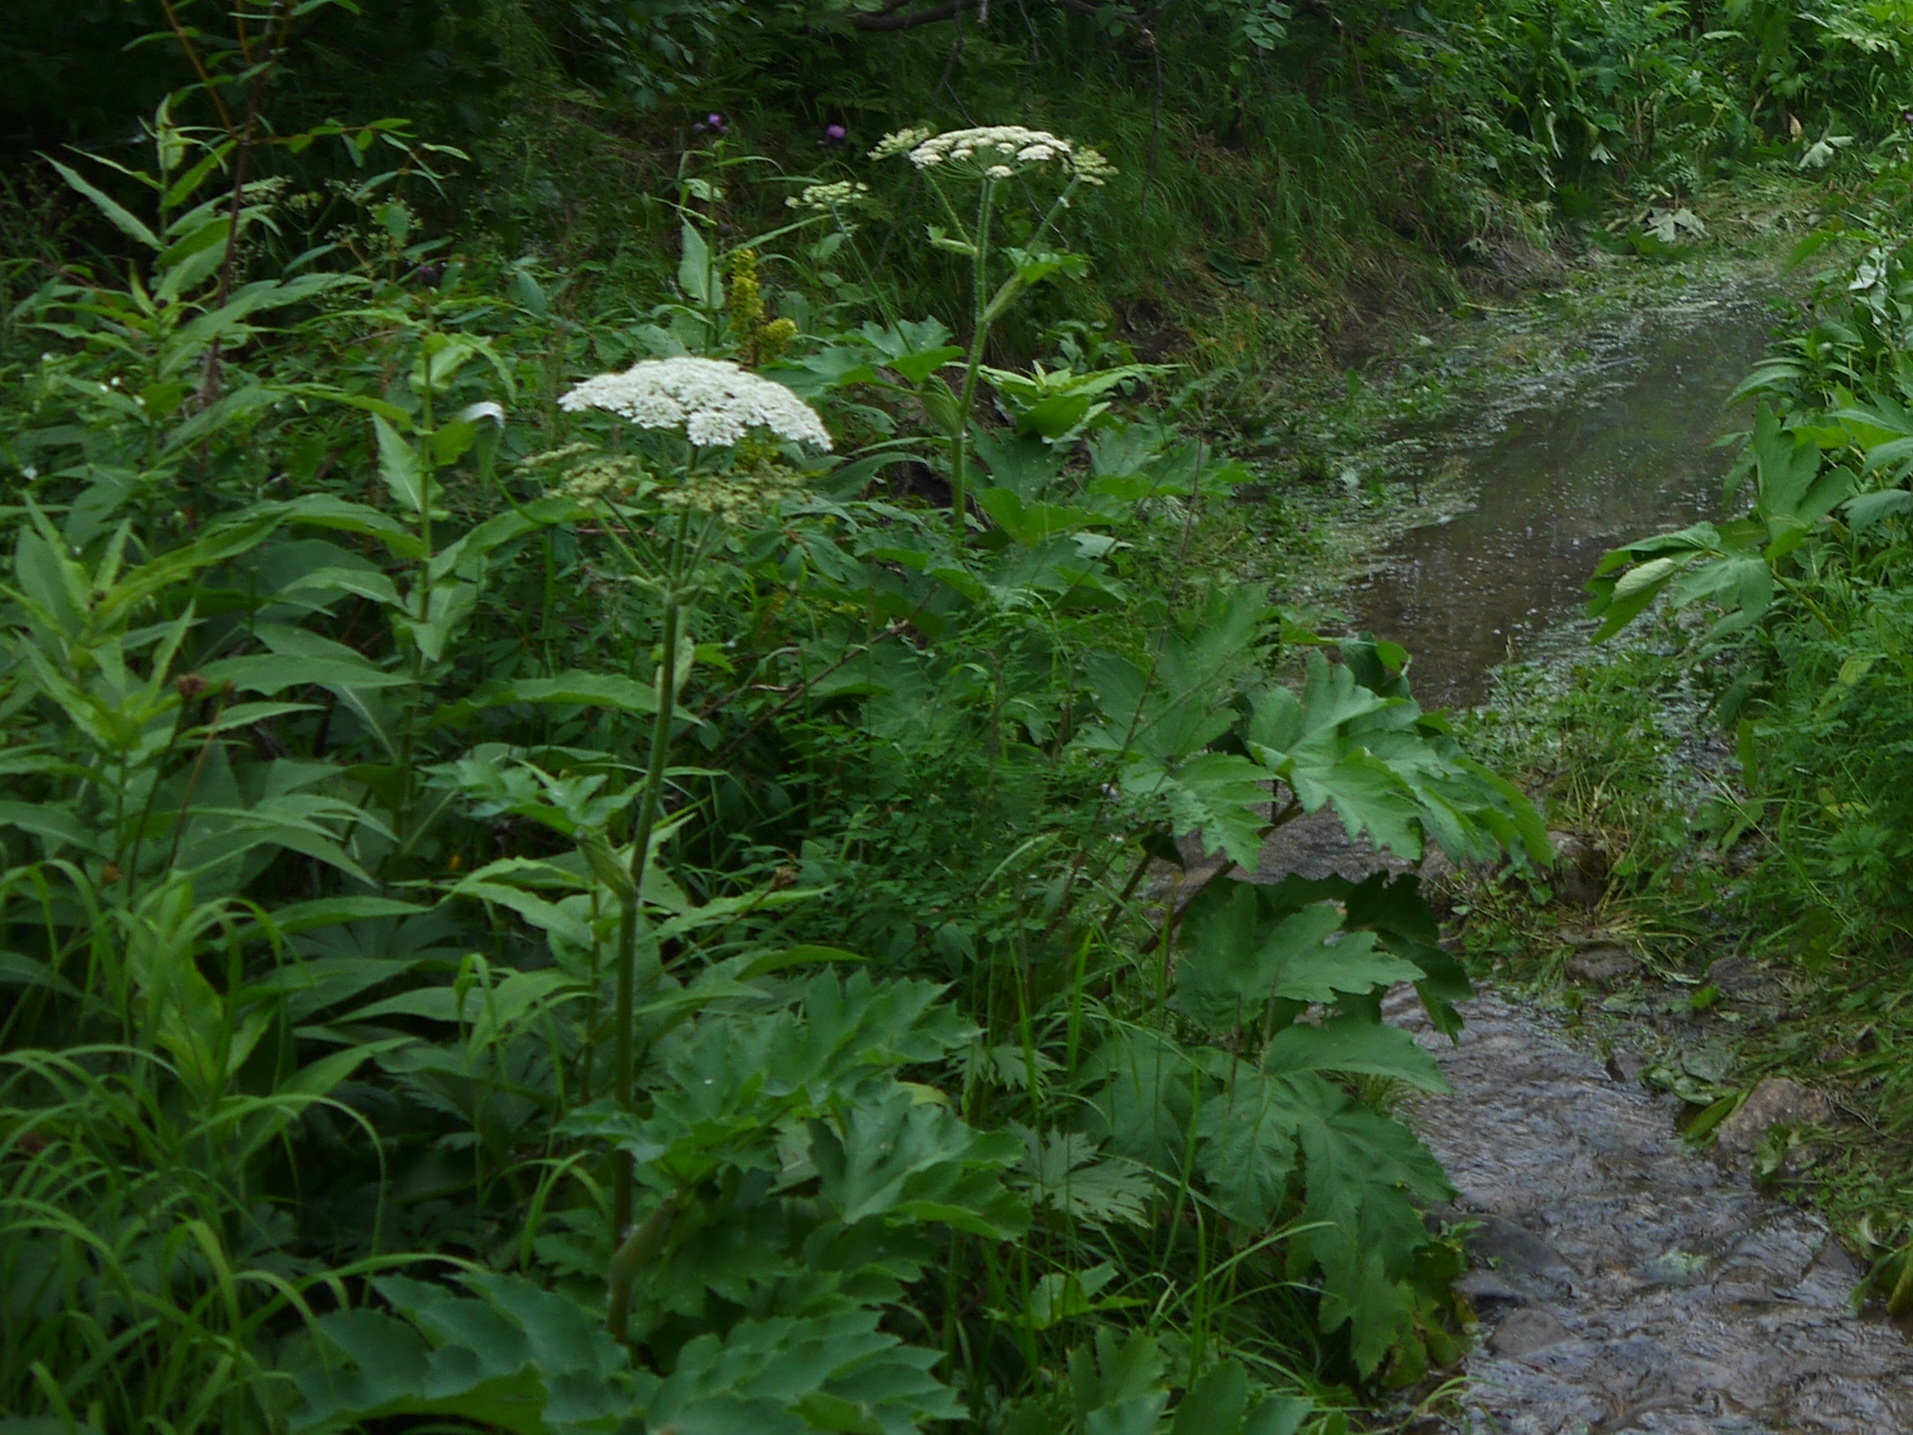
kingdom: Plantae
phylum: Tracheophyta
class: Magnoliopsida
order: Apiales
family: Apiaceae
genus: Heracleum
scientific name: Heracleum dissectum
